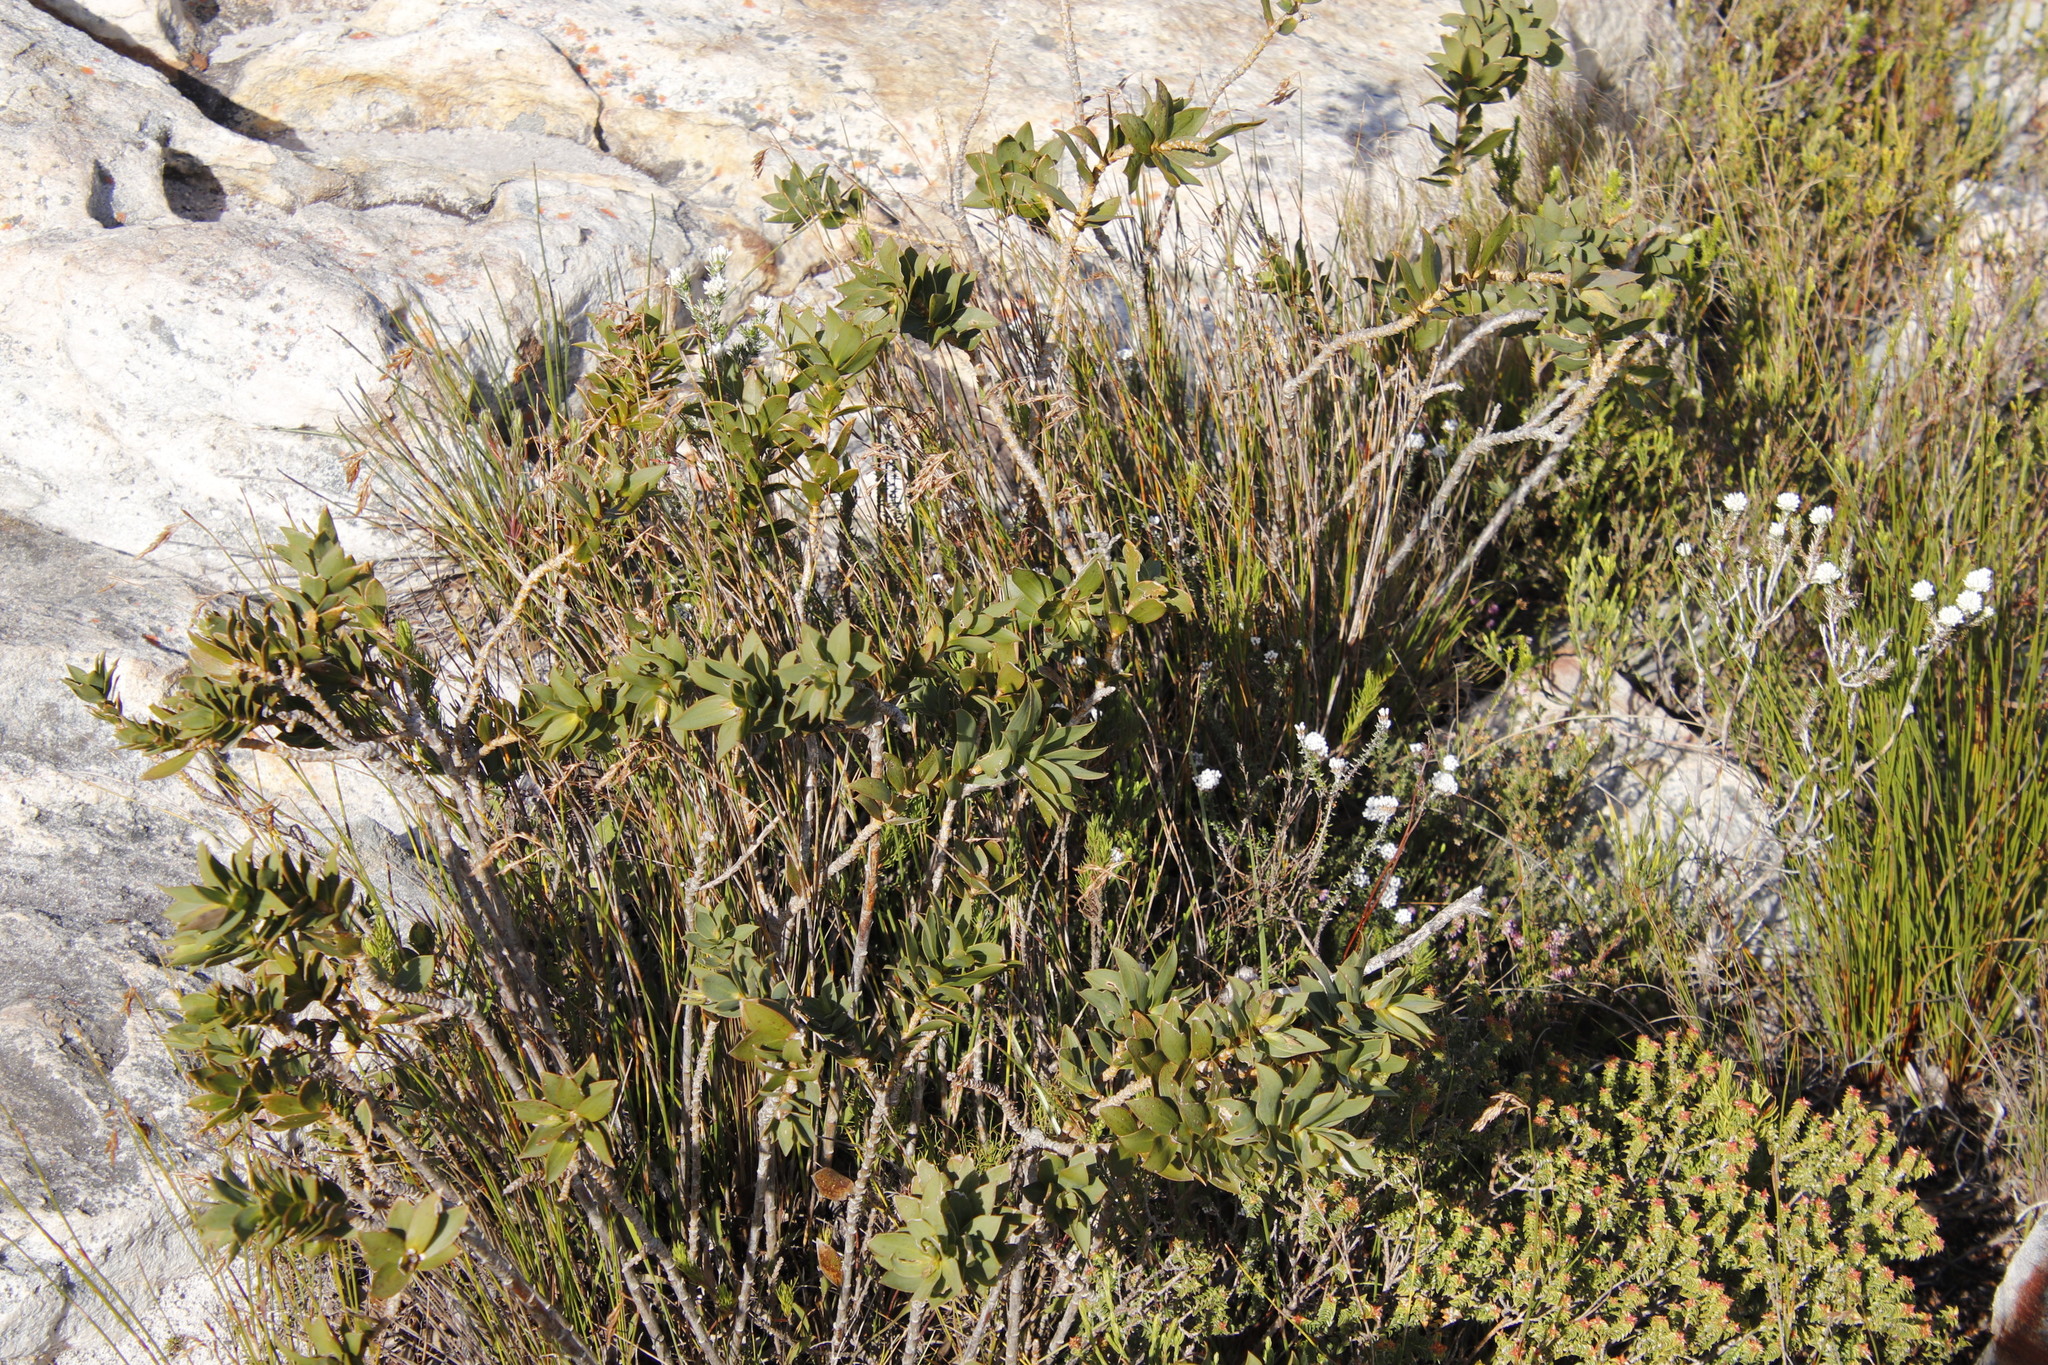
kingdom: Plantae
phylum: Tracheophyta
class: Magnoliopsida
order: Fabales
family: Fabaceae
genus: Liparia
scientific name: Liparia splendens
